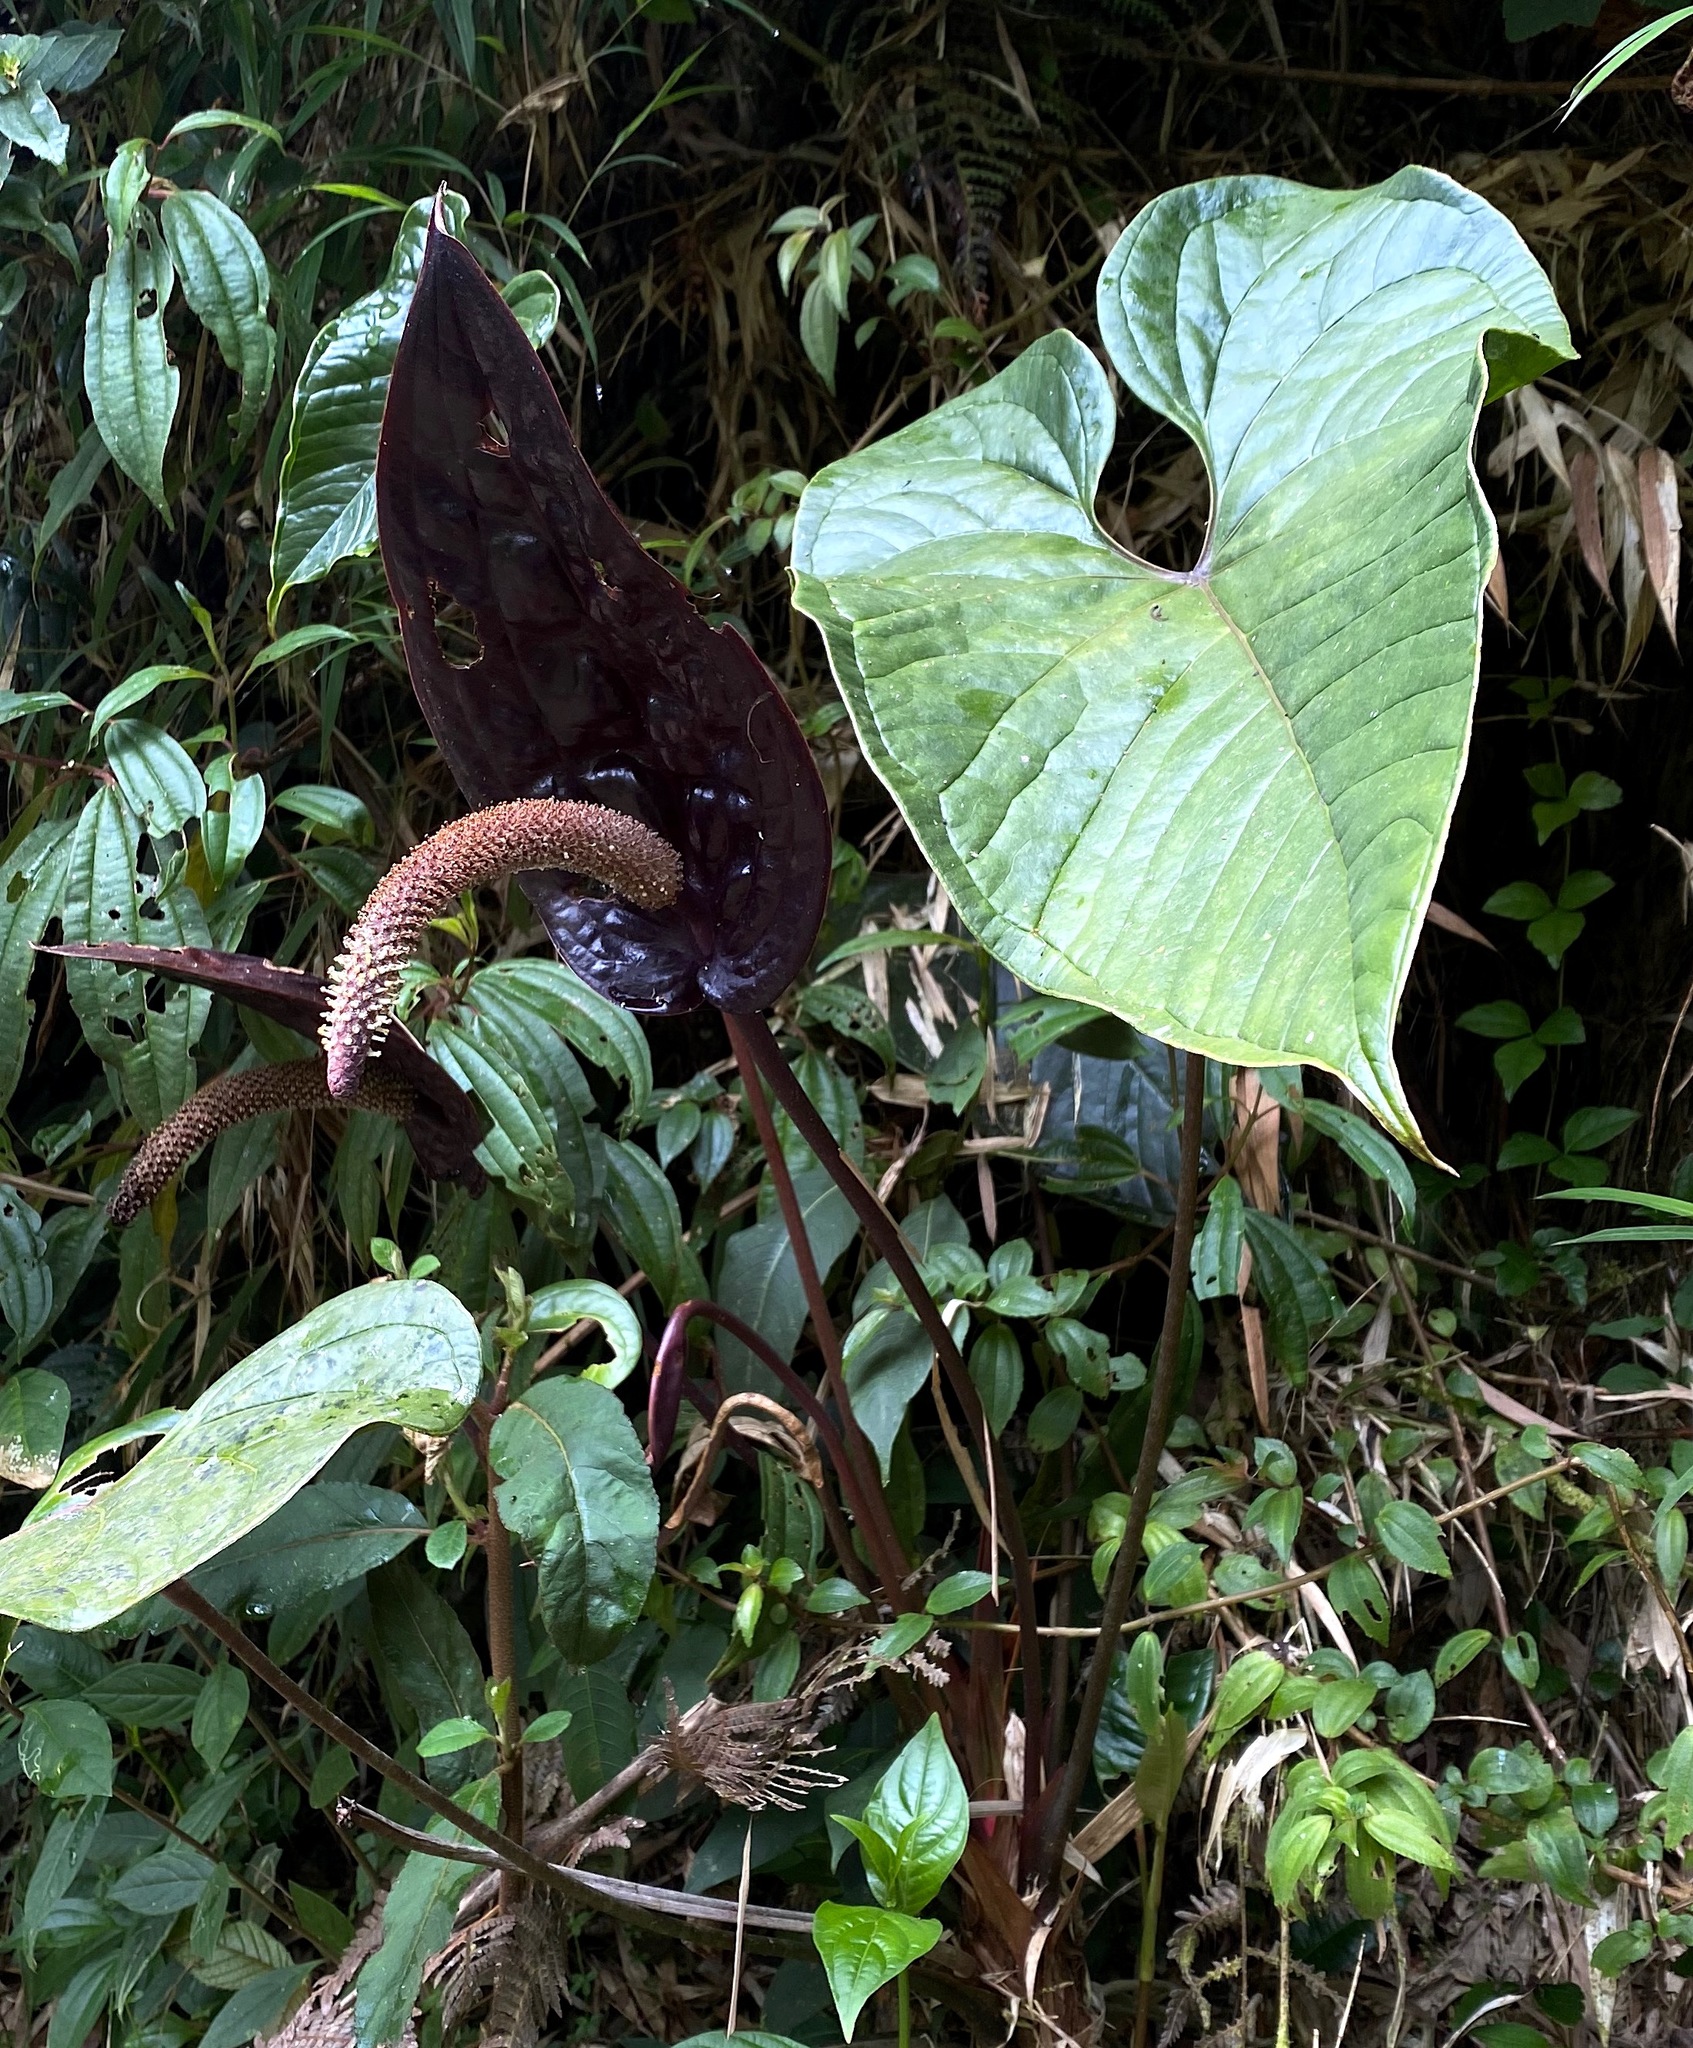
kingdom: Plantae
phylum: Tracheophyta
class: Liliopsida
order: Alismatales
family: Araceae
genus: Anthurium
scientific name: Anthurium caramantae
